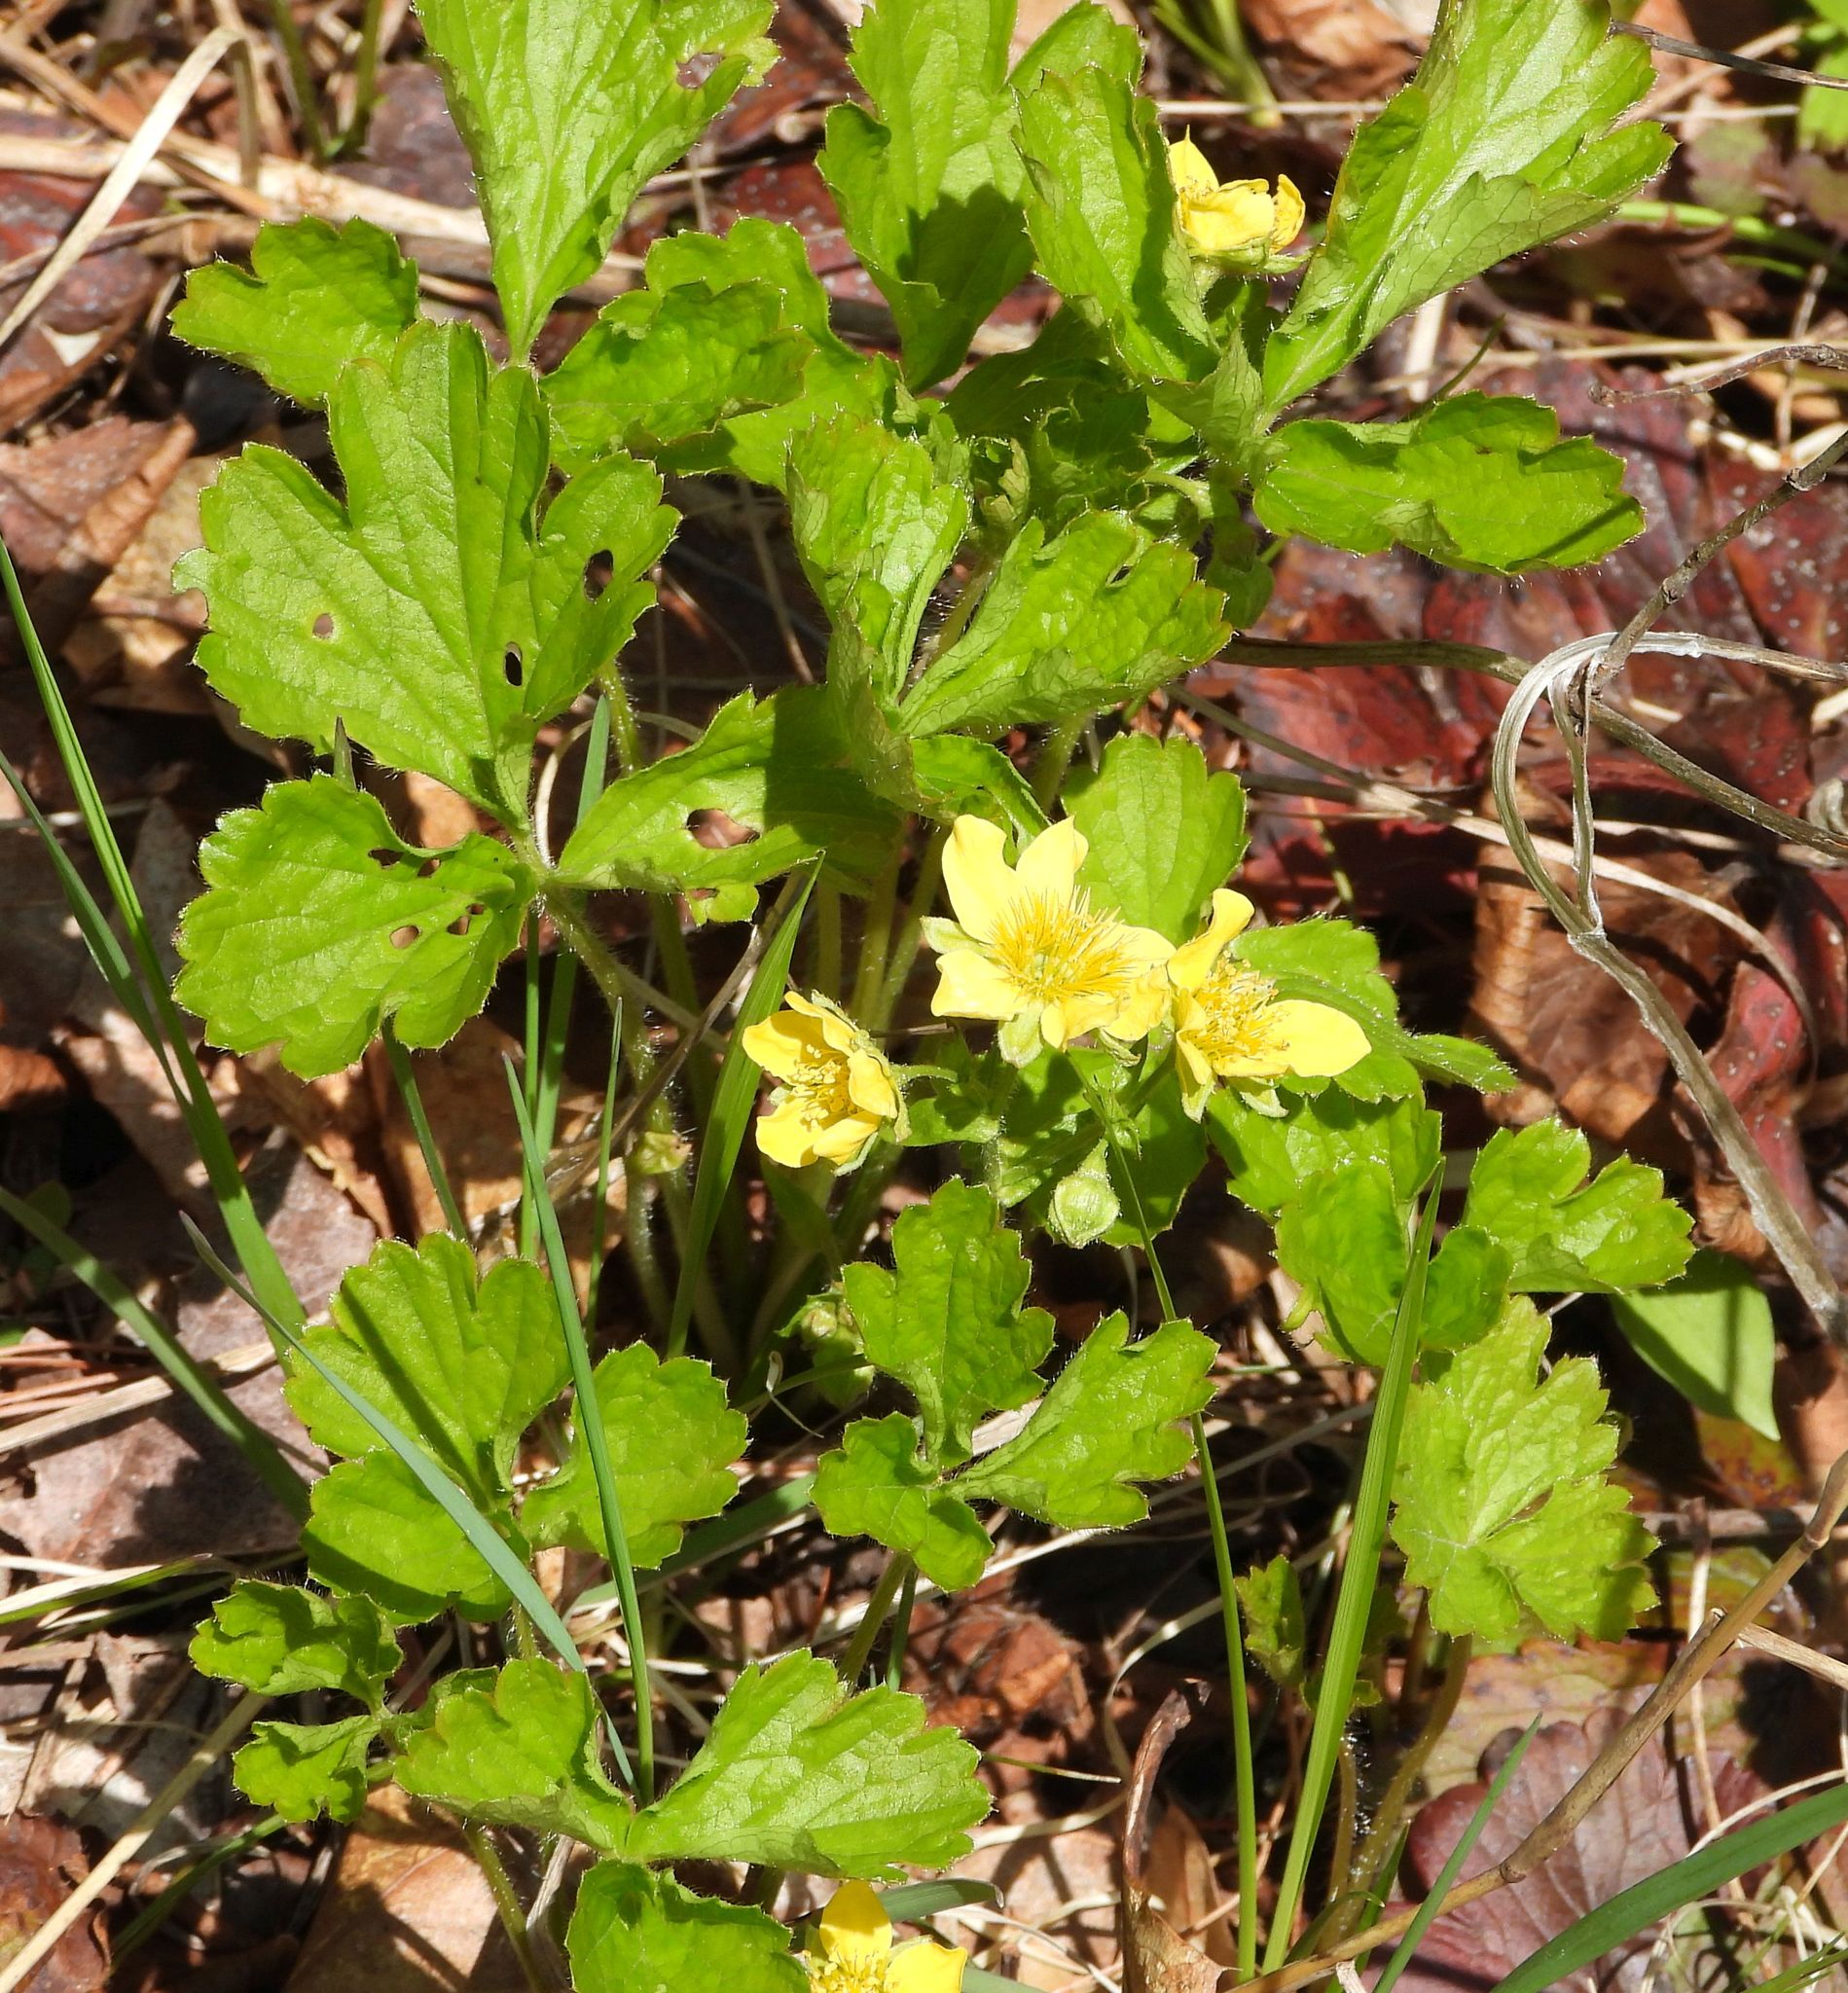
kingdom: Plantae
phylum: Tracheophyta
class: Magnoliopsida
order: Rosales
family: Rosaceae
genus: Geum
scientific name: Geum fragarioides
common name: Appalachian barren strawberry
